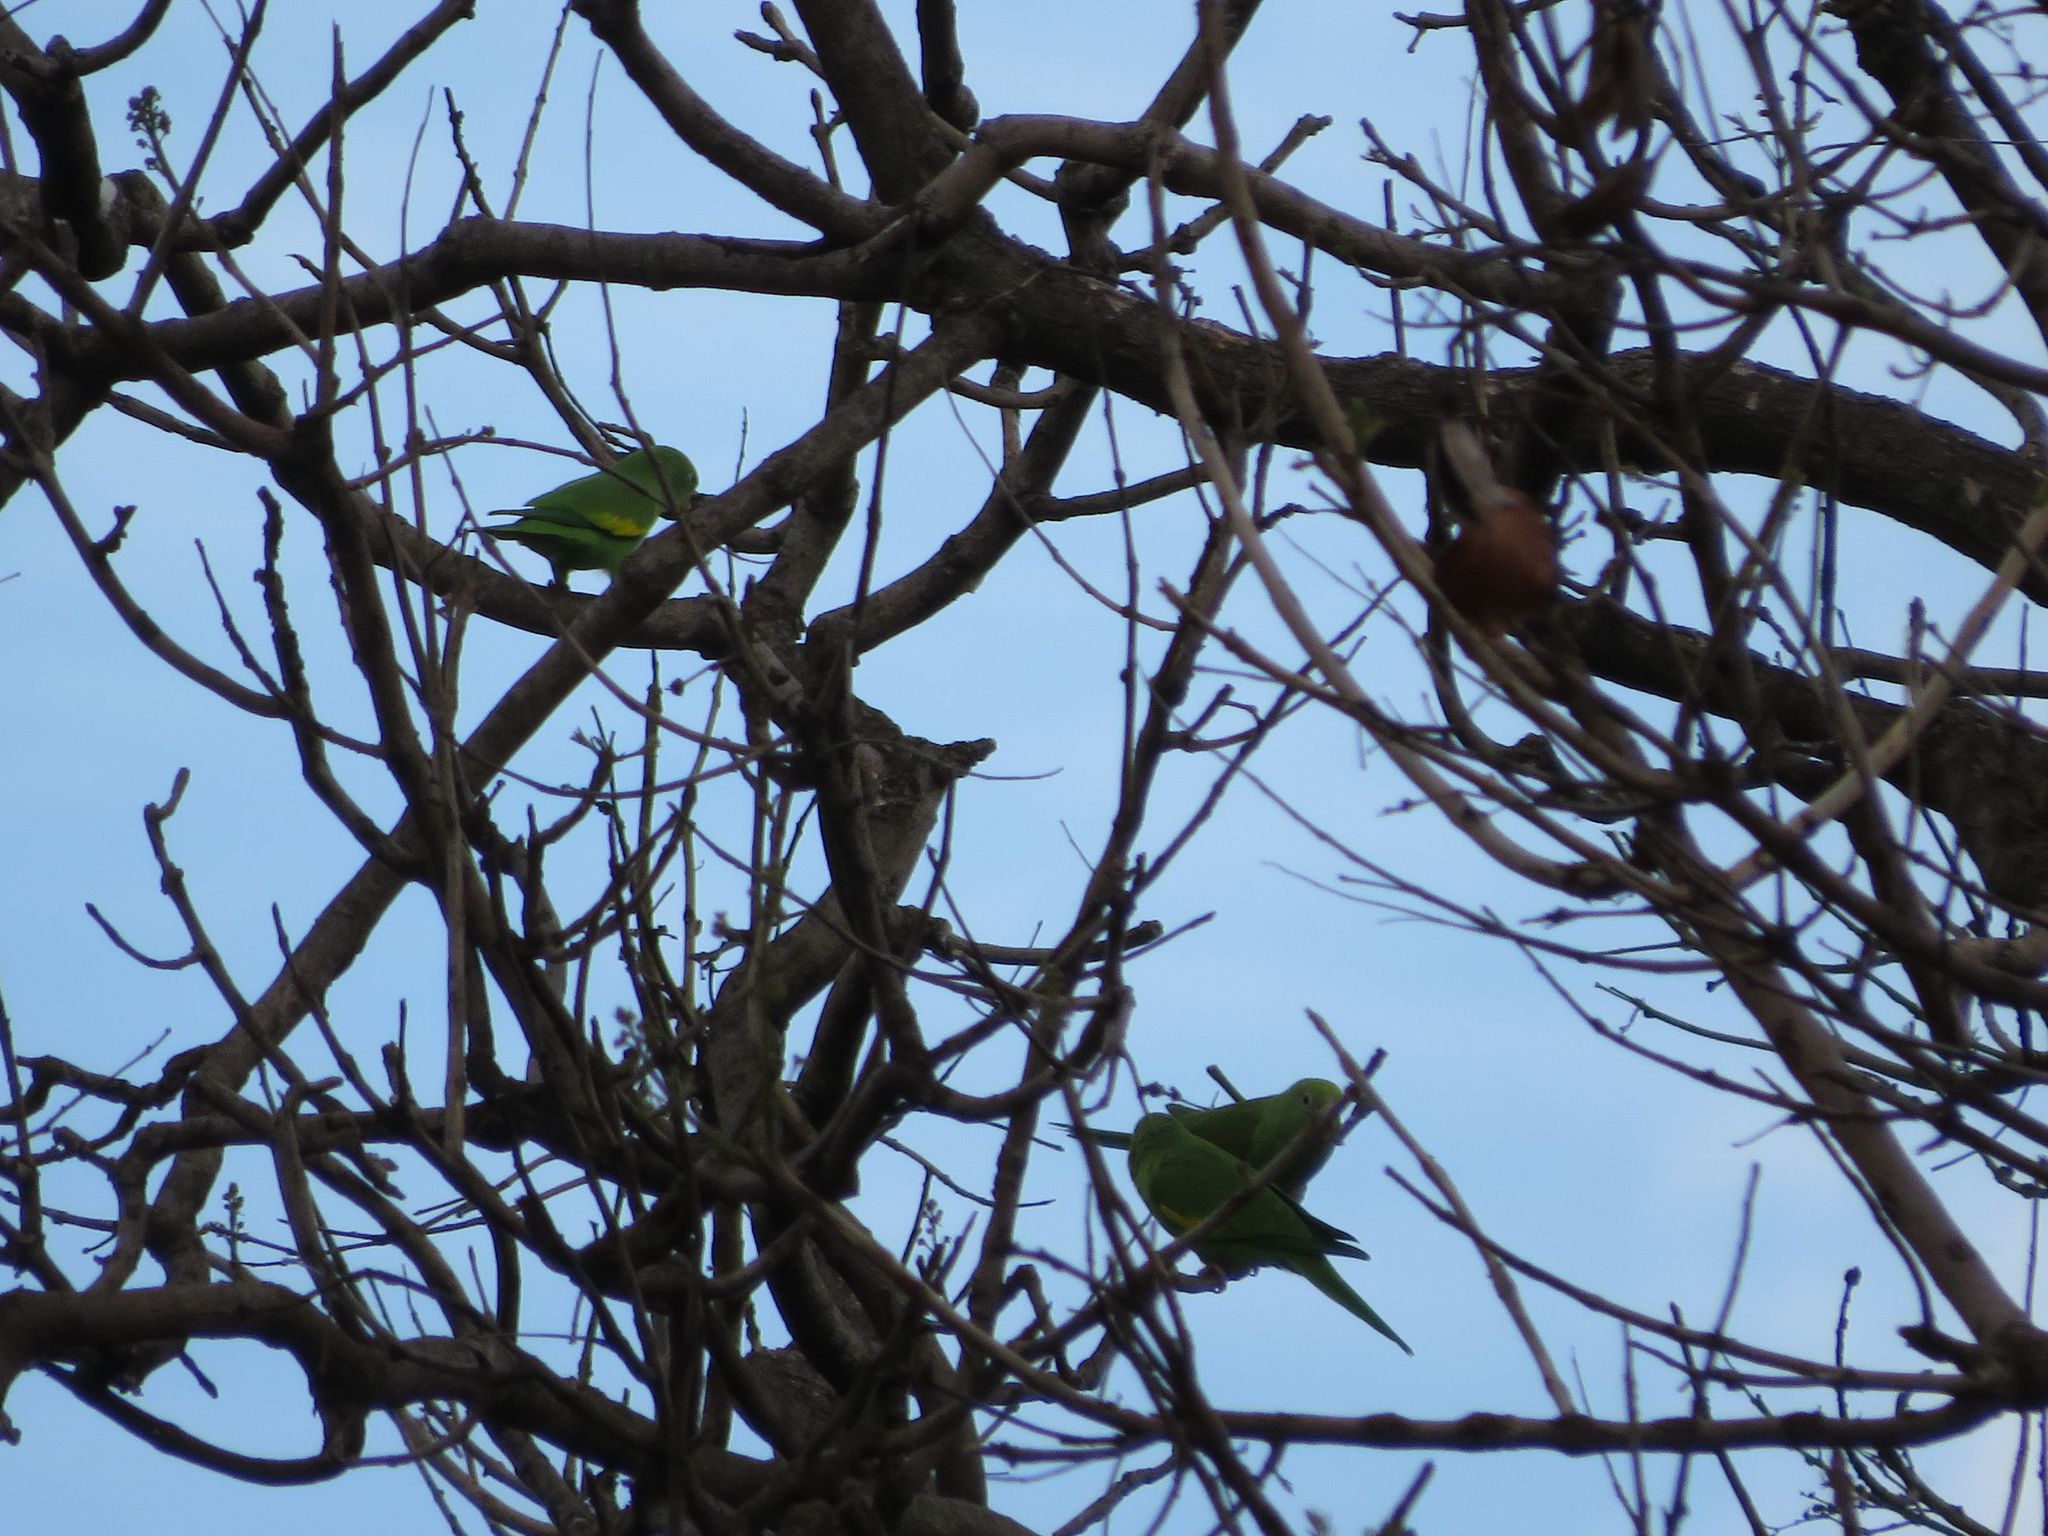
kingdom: Animalia
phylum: Chordata
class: Aves
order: Psittaciformes
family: Psittacidae
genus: Brotogeris
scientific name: Brotogeris chiriri
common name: Yellow-chevroned parakeet
